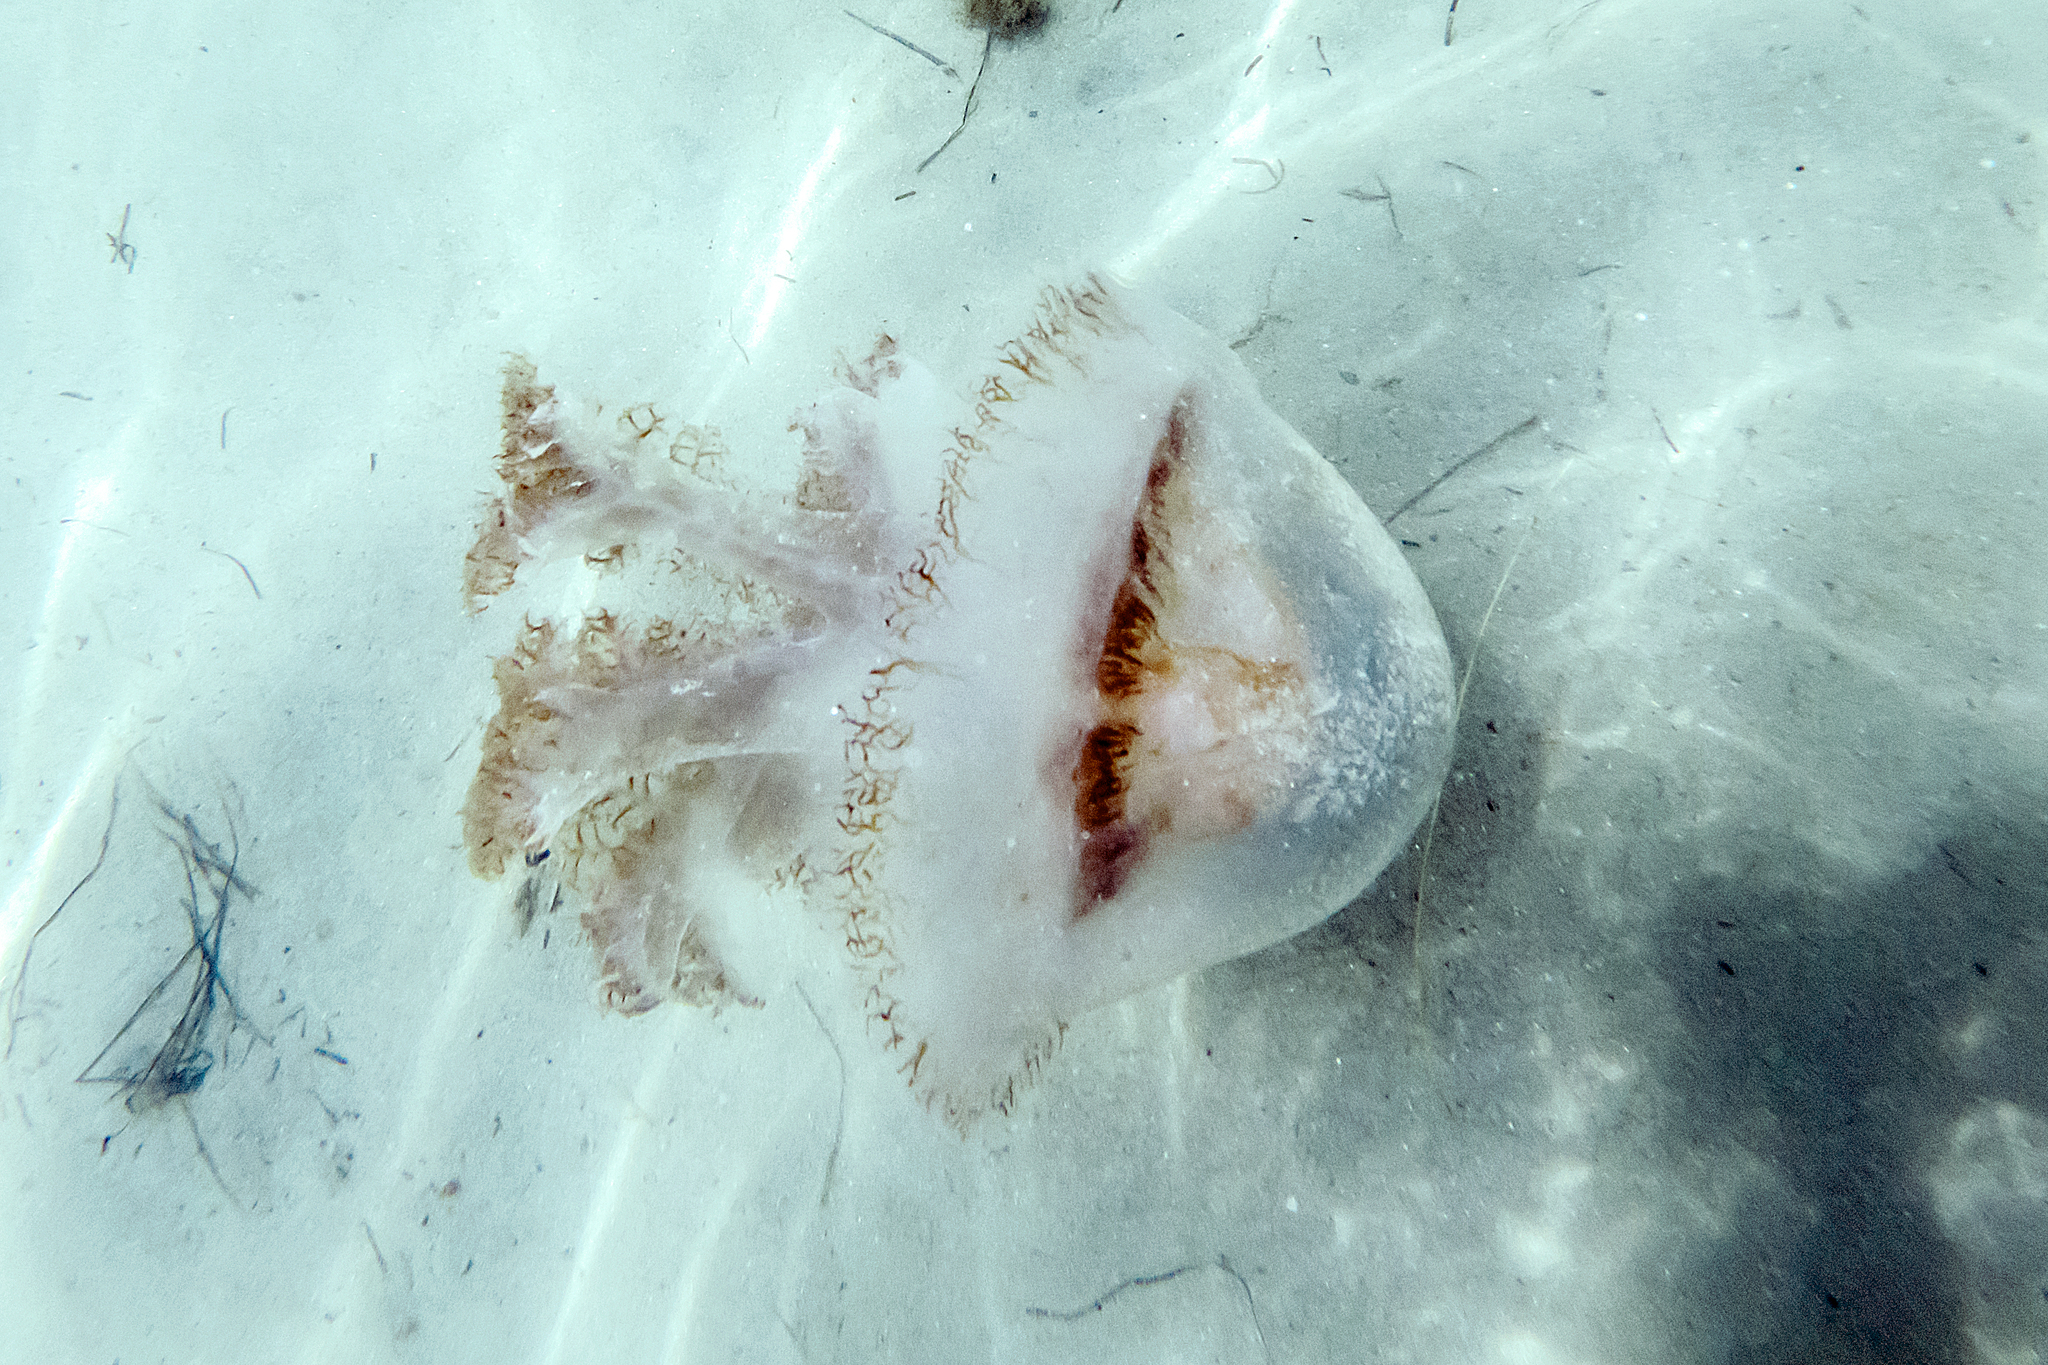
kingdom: Animalia
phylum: Cnidaria
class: Scyphozoa
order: Rhizostomeae
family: Lychnorhizidae
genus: Pseudorhiza
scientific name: Pseudorhiza haeckeli
